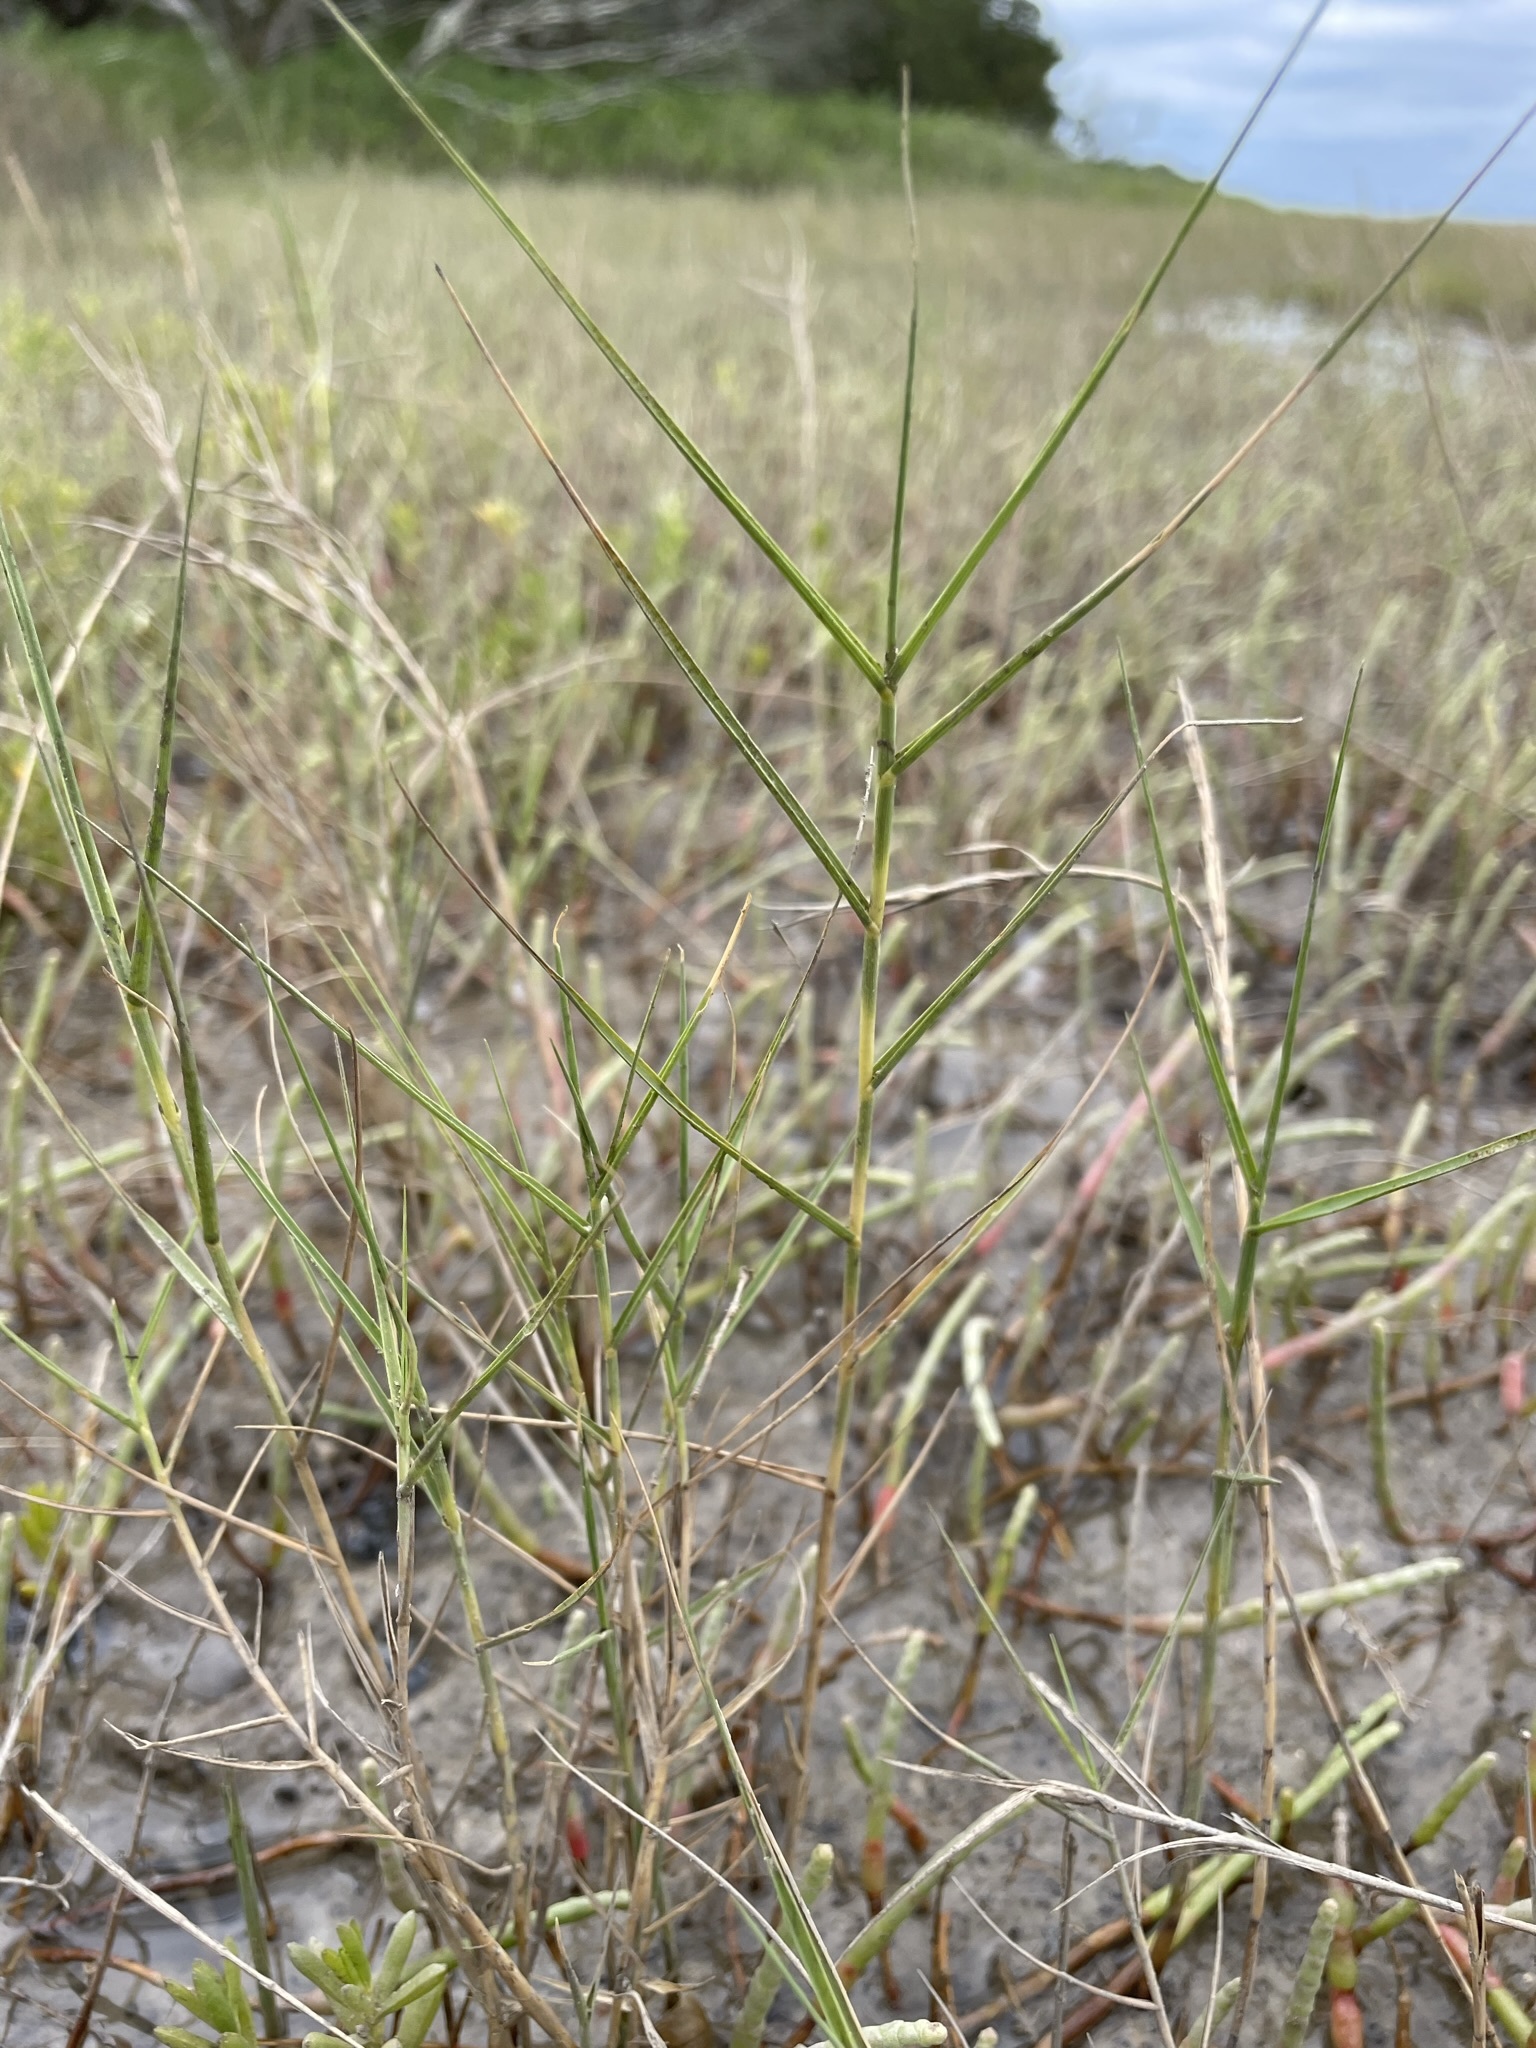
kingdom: Plantae
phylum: Tracheophyta
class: Liliopsida
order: Poales
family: Poaceae
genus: Distichlis
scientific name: Distichlis spicata
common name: Saltgrass
